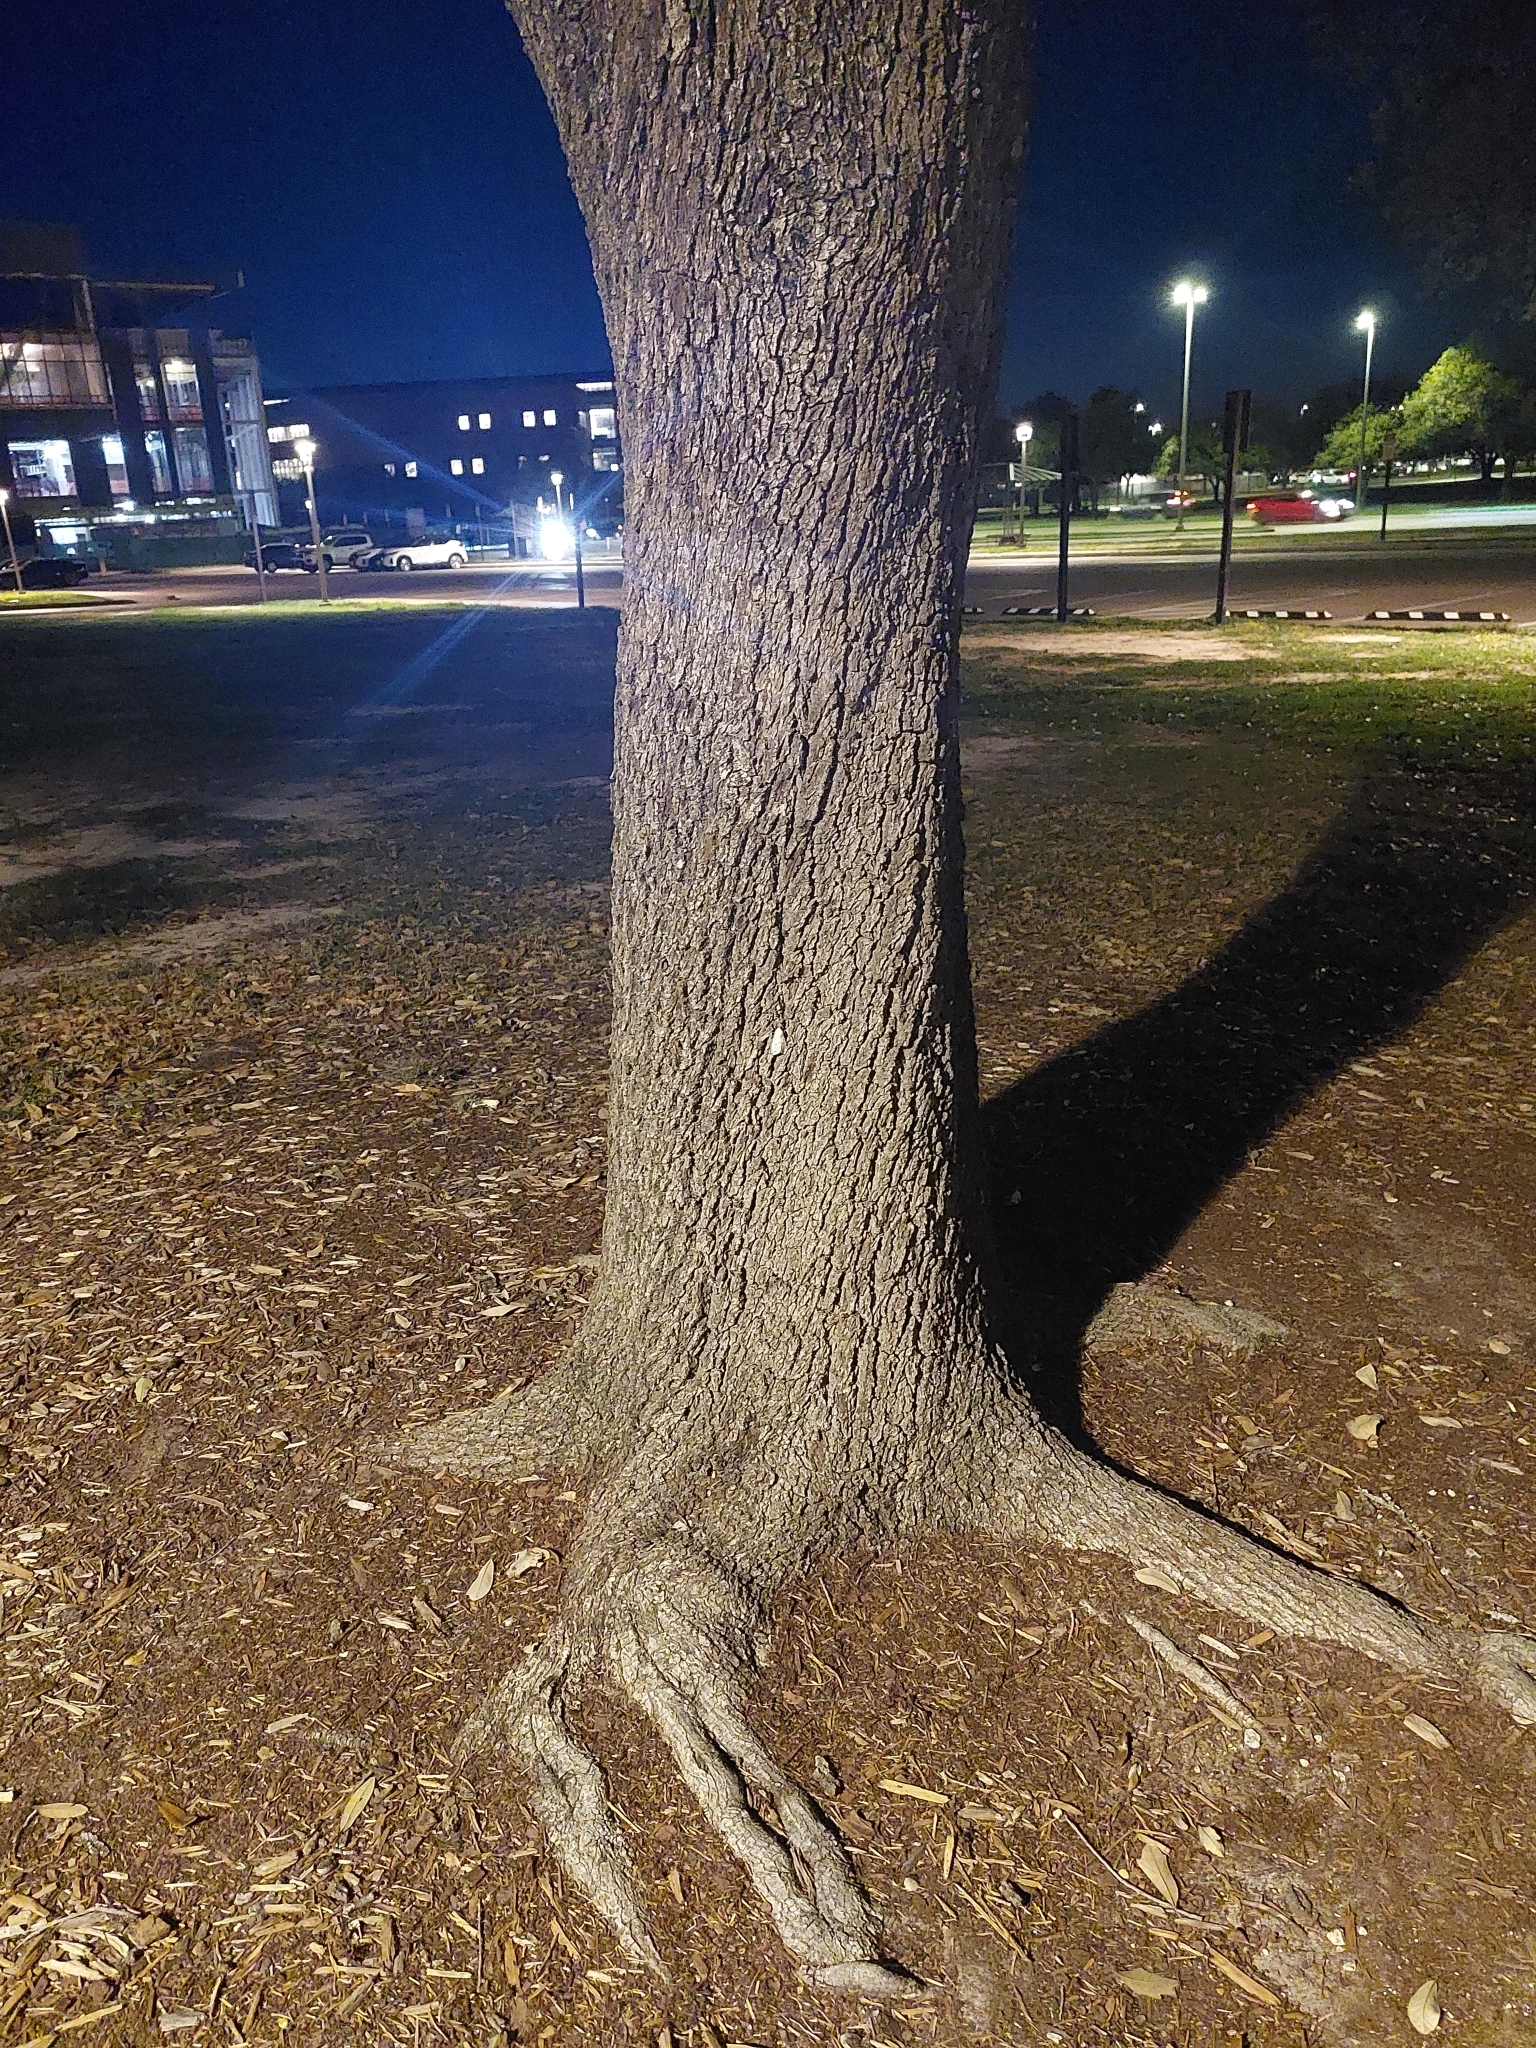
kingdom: Animalia
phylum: Arthropoda
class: Insecta
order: Lepidoptera
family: Erebidae
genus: Estigmene
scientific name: Estigmene acrea
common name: Salt marsh moth
